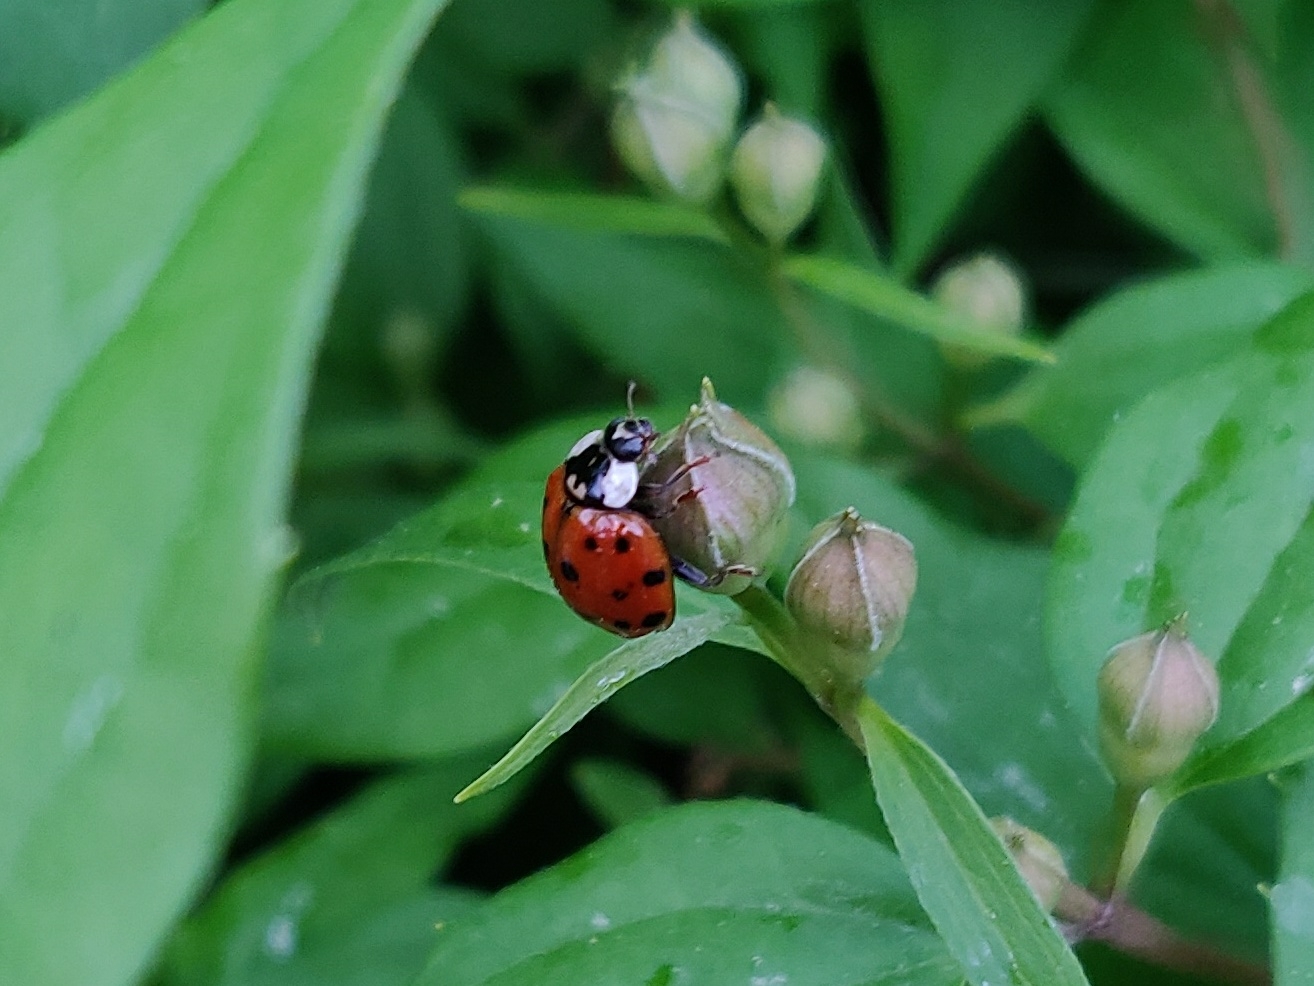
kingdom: Animalia
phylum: Arthropoda
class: Insecta
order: Coleoptera
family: Coccinellidae
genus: Harmonia
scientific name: Harmonia axyridis
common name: Harlequin ladybird
